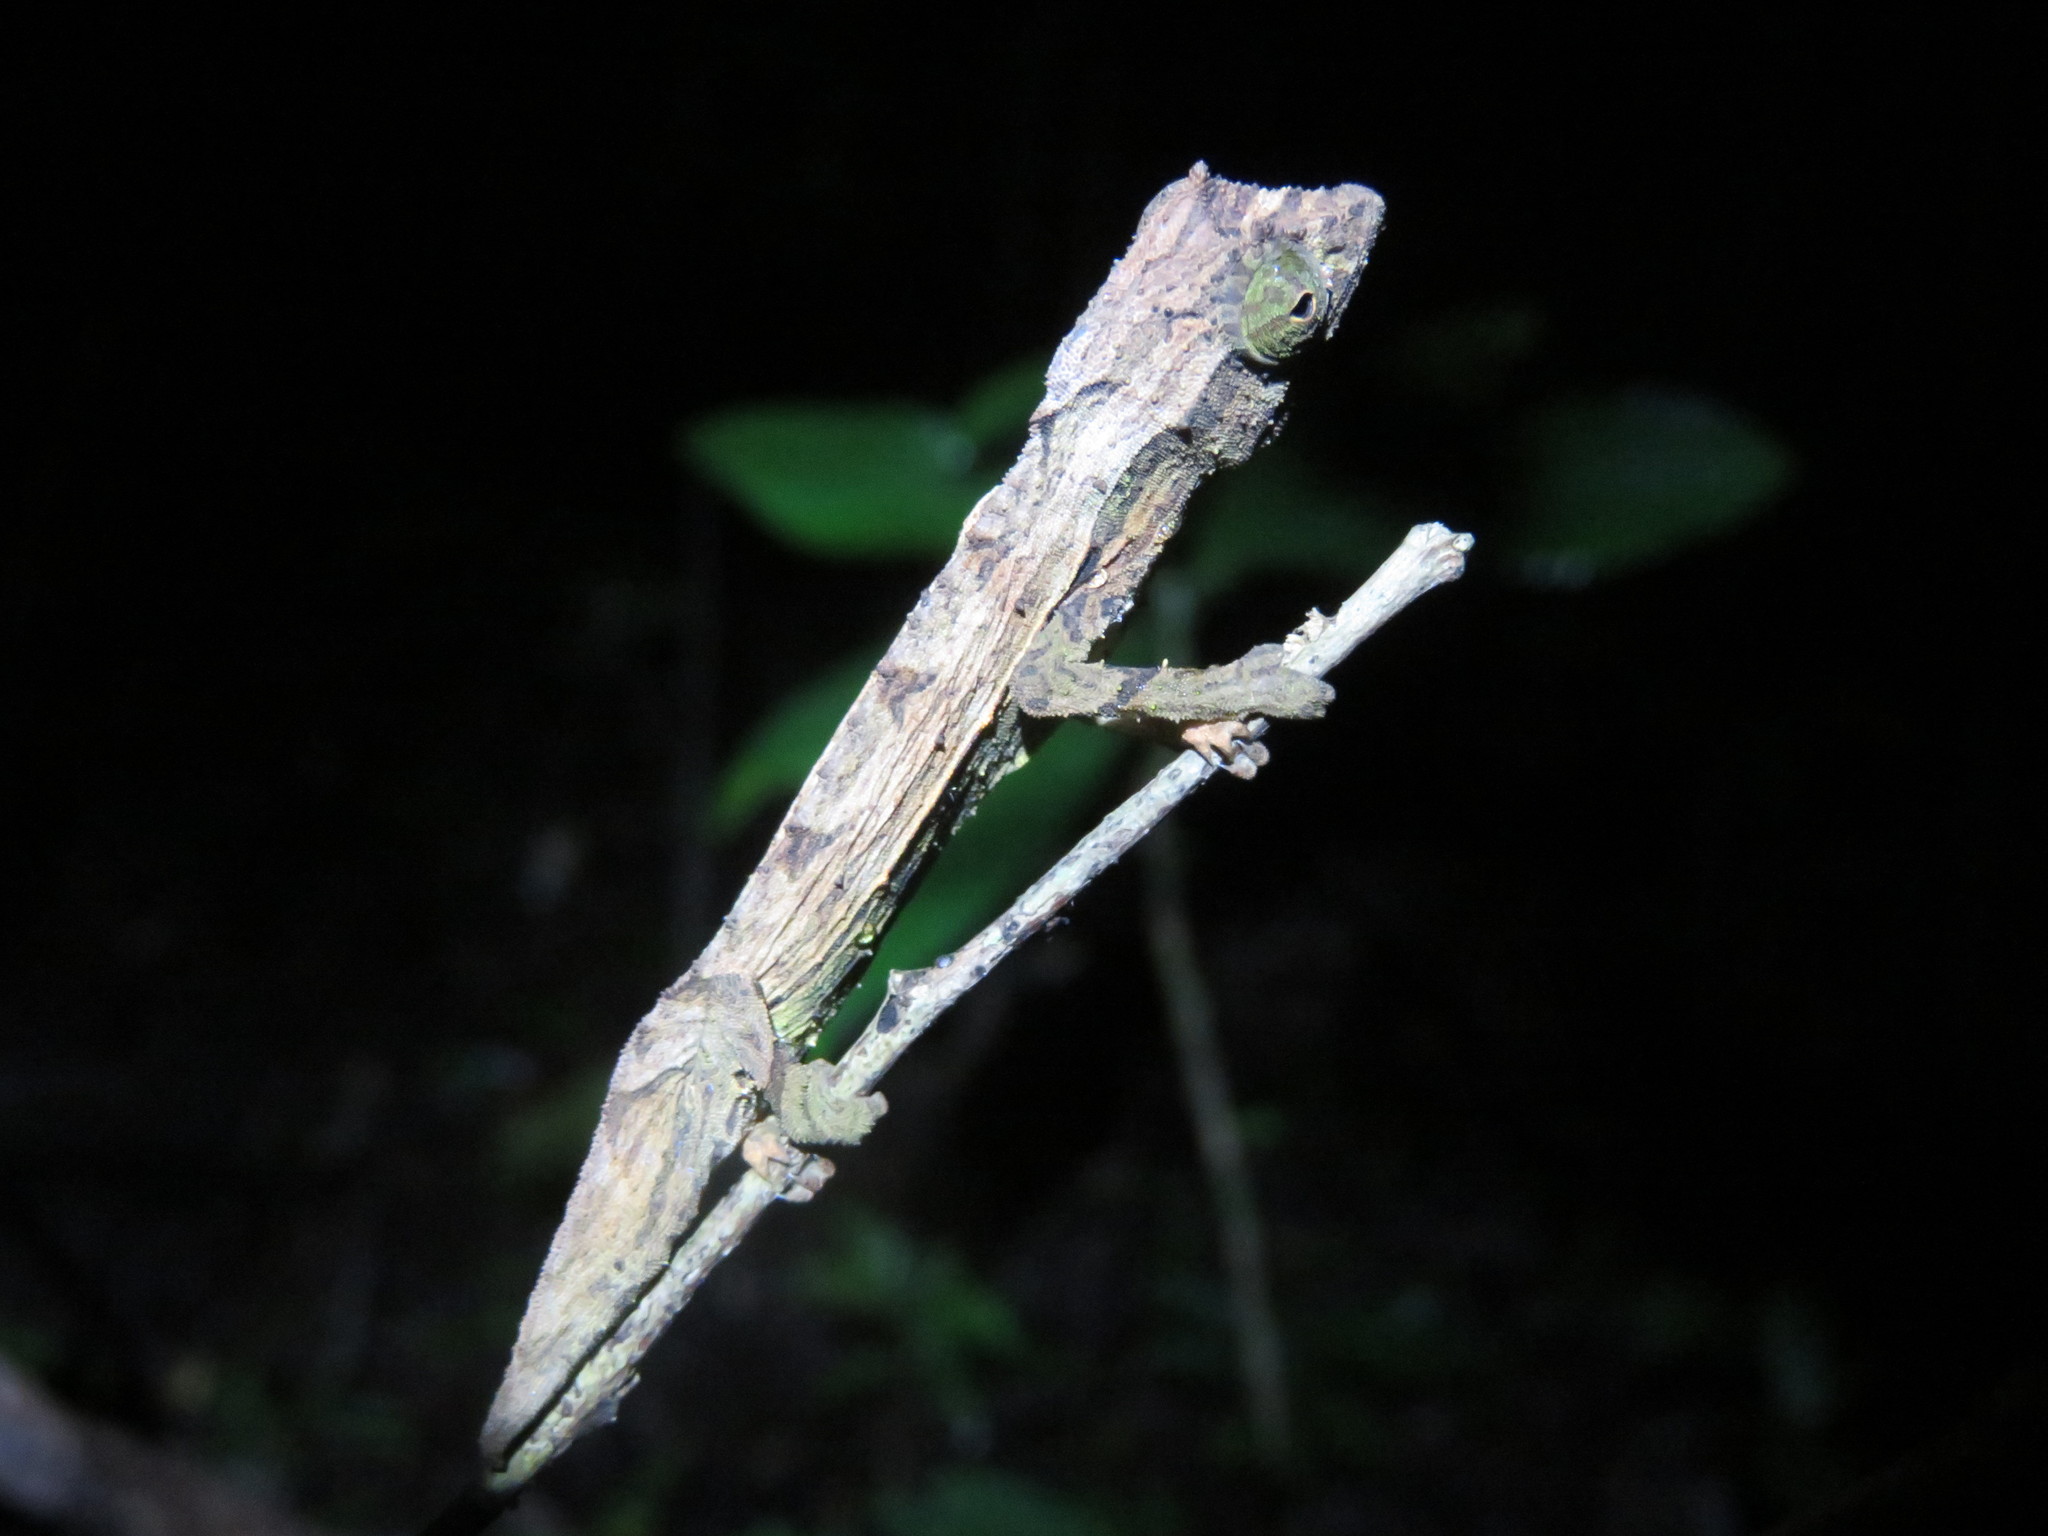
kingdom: Animalia
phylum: Chordata
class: Squamata
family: Chamaeleonidae
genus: Rieppeleon
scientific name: Rieppeleon brevicaudatus
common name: Bearded pygmy chameleon
